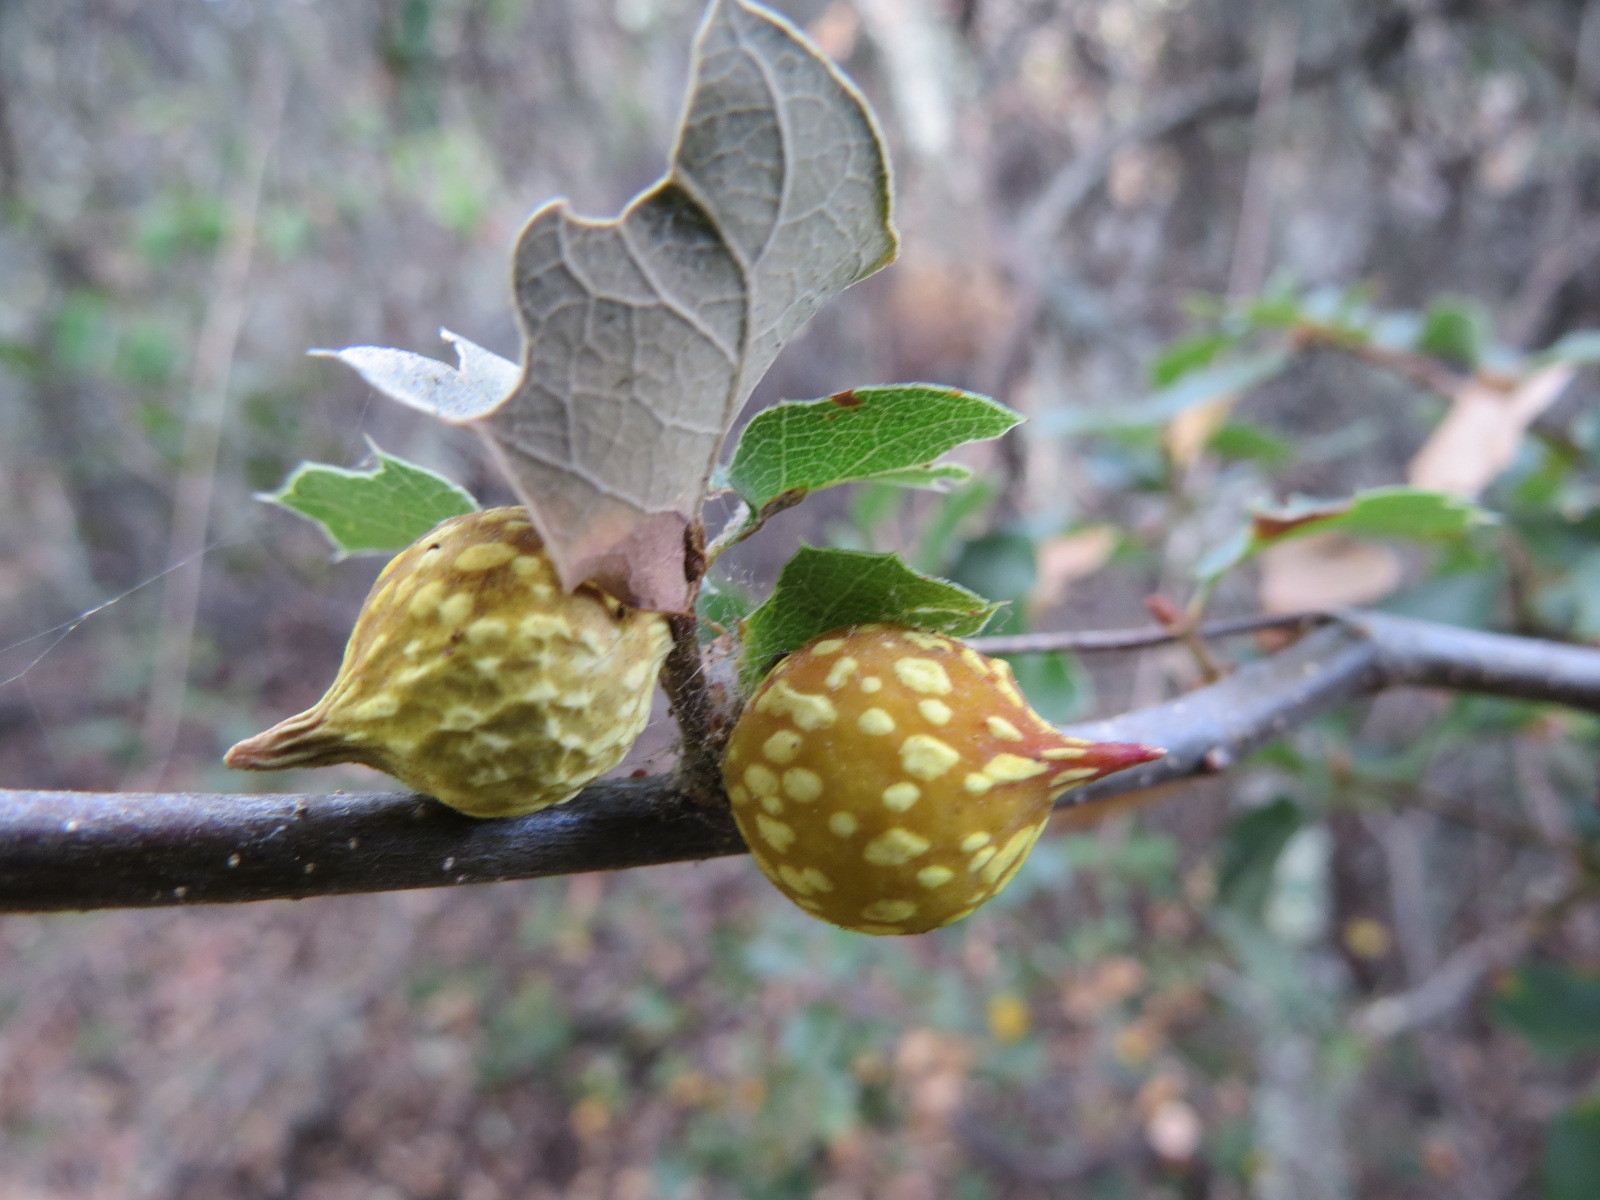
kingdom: Animalia
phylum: Arthropoda
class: Insecta
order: Hymenoptera
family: Cynipidae
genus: Burnettweldia
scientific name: Burnettweldia
